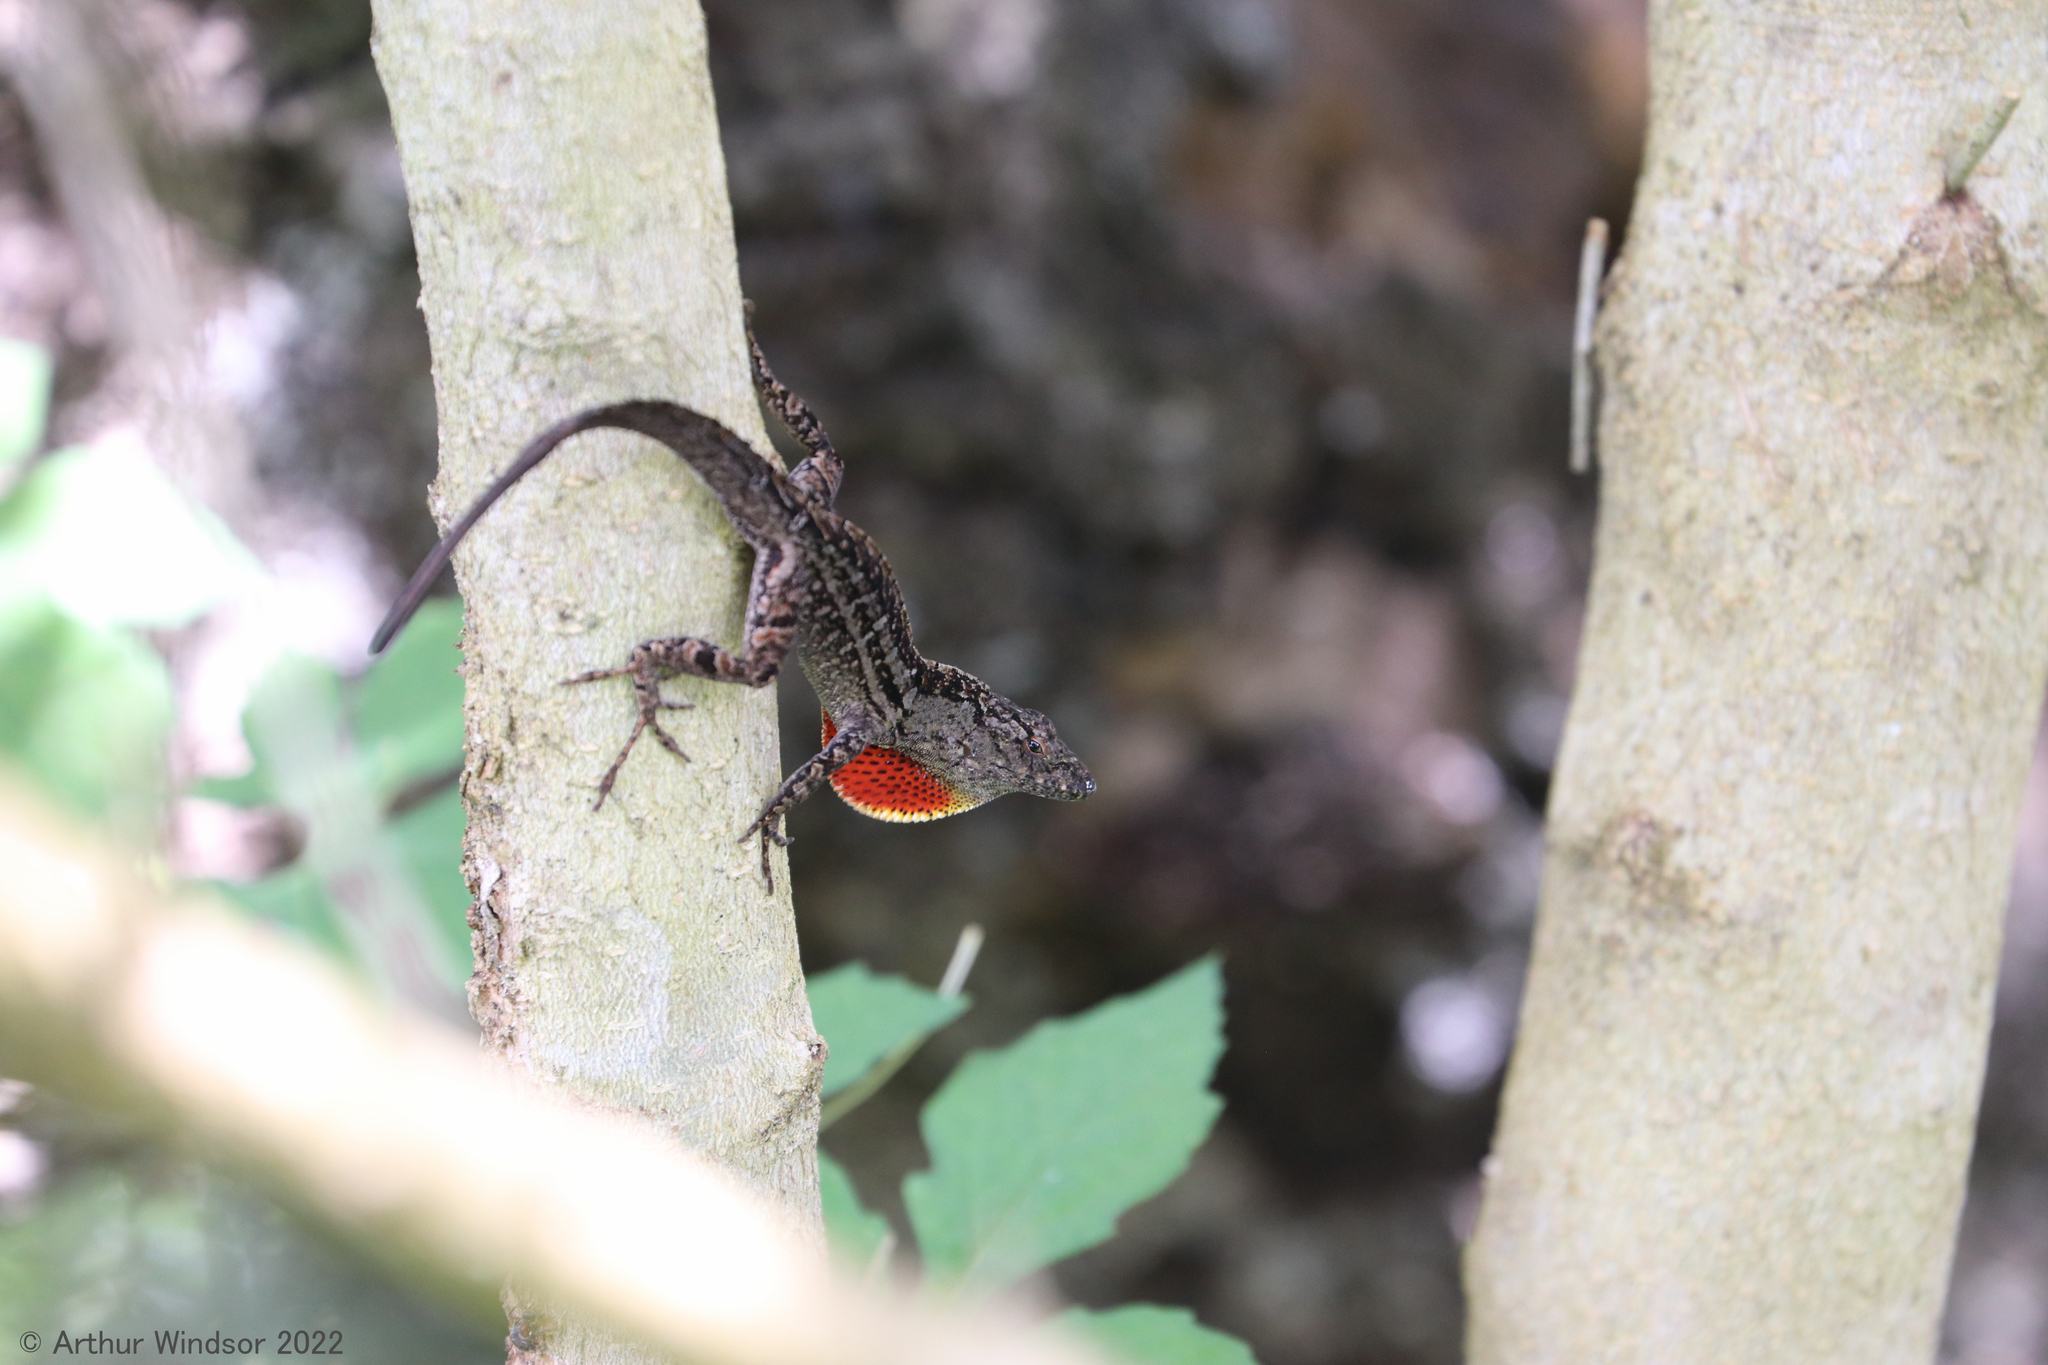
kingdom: Animalia
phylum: Chordata
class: Squamata
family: Dactyloidae
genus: Anolis
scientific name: Anolis sagrei
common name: Brown anole
